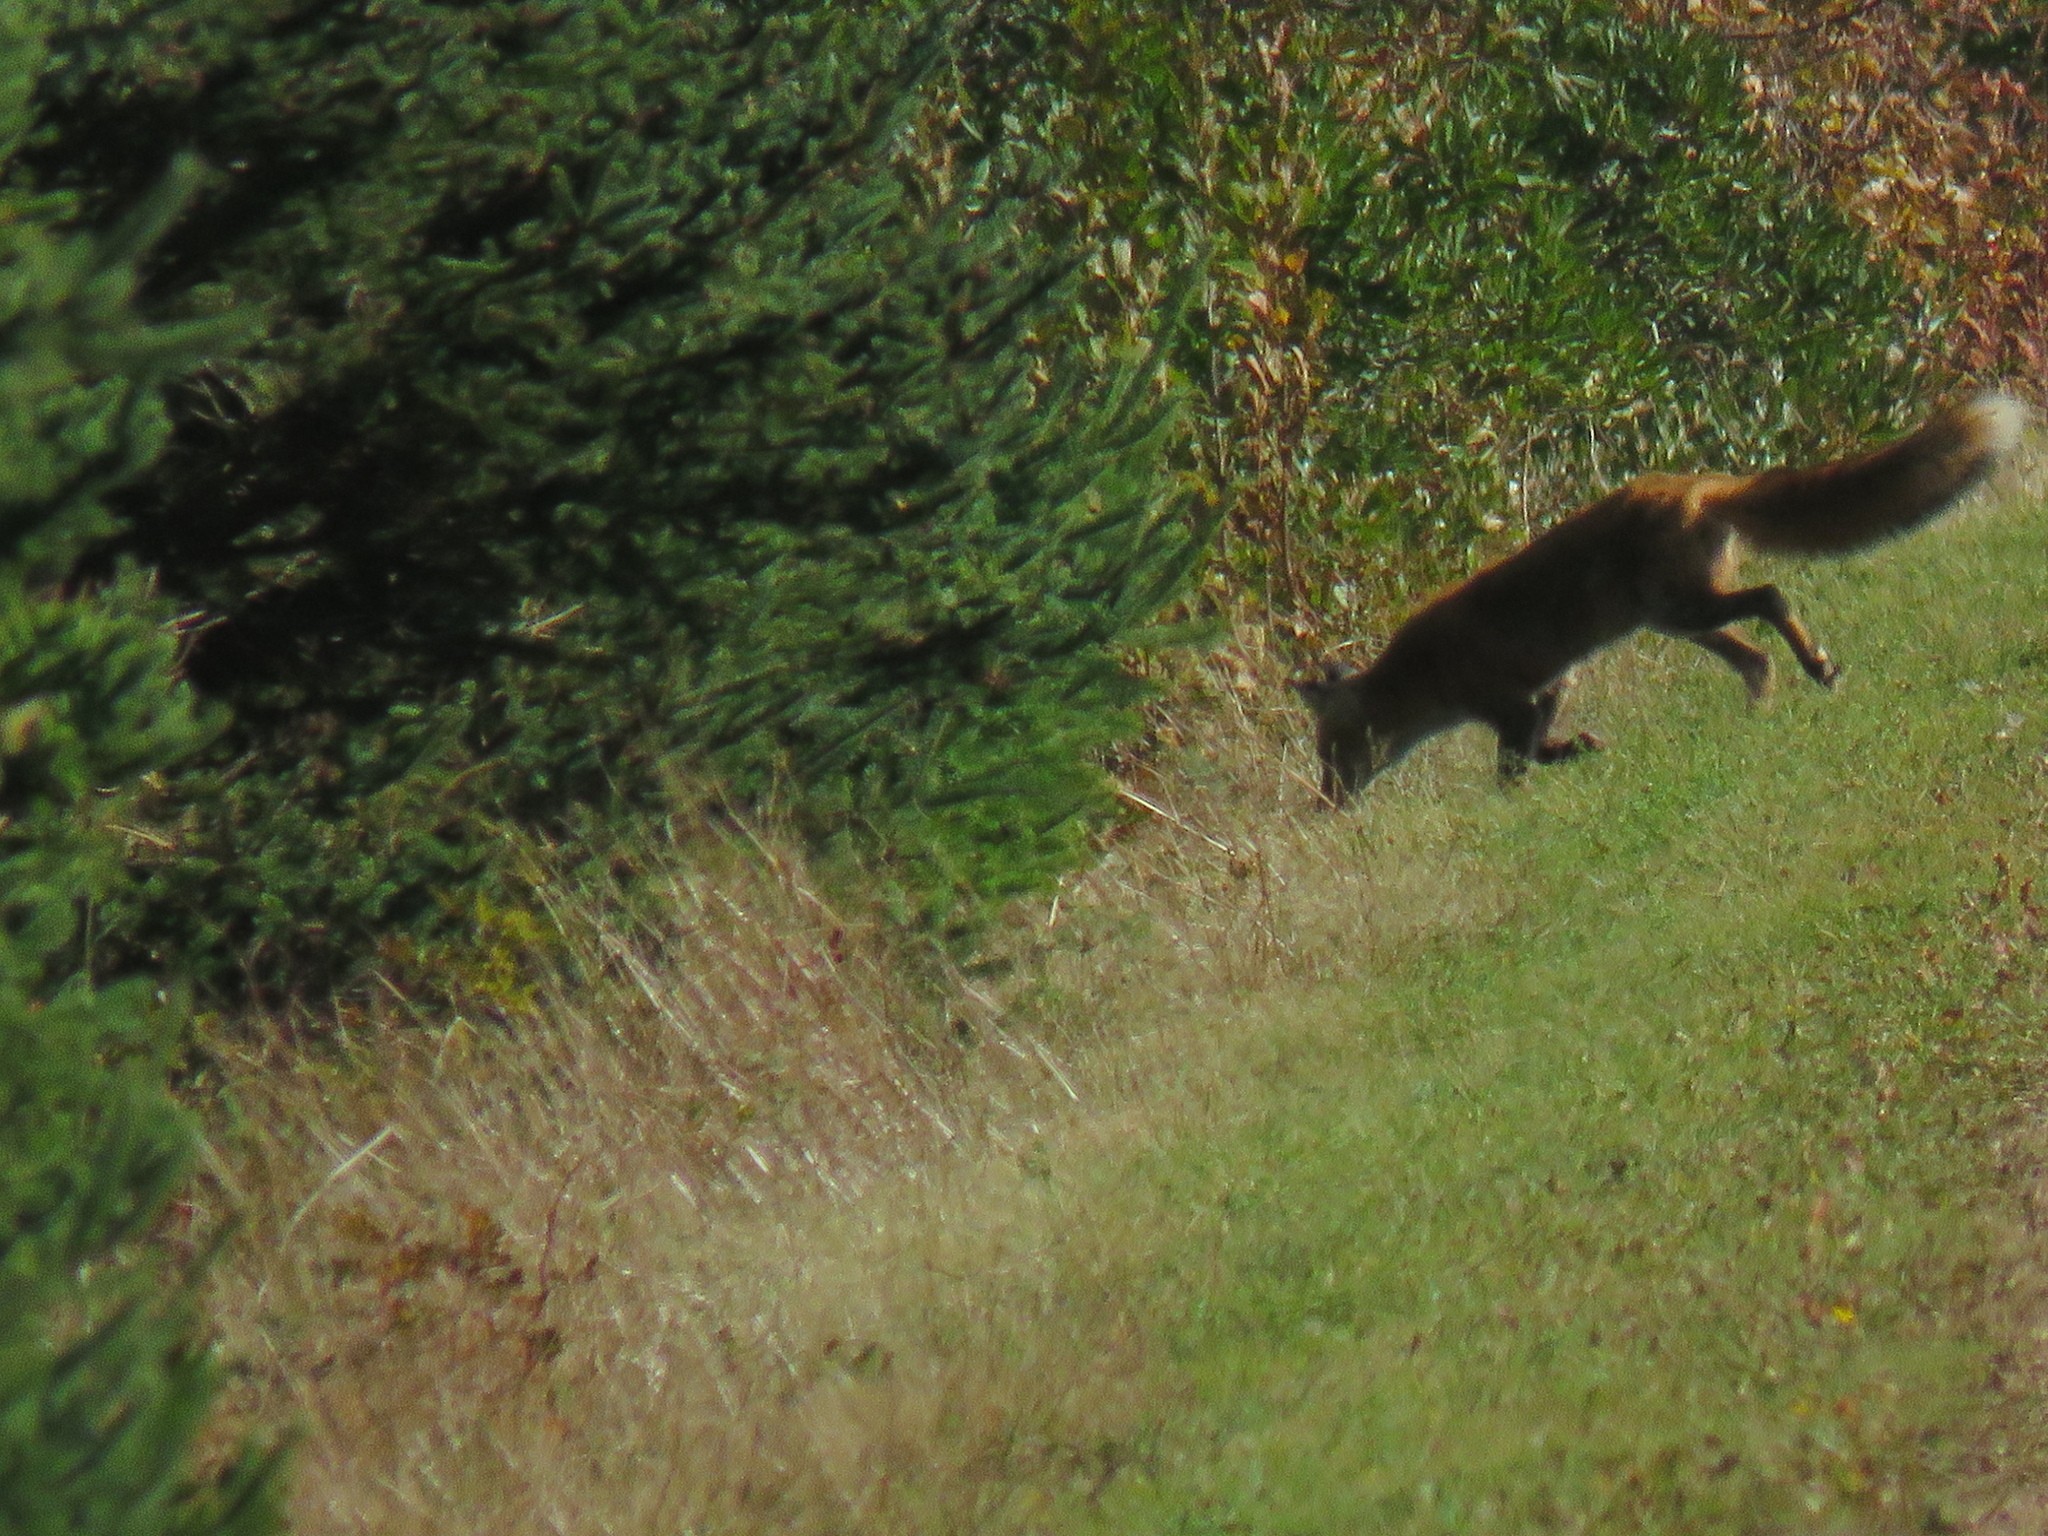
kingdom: Animalia
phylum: Chordata
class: Mammalia
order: Carnivora
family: Canidae
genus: Vulpes
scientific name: Vulpes vulpes
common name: Red fox
